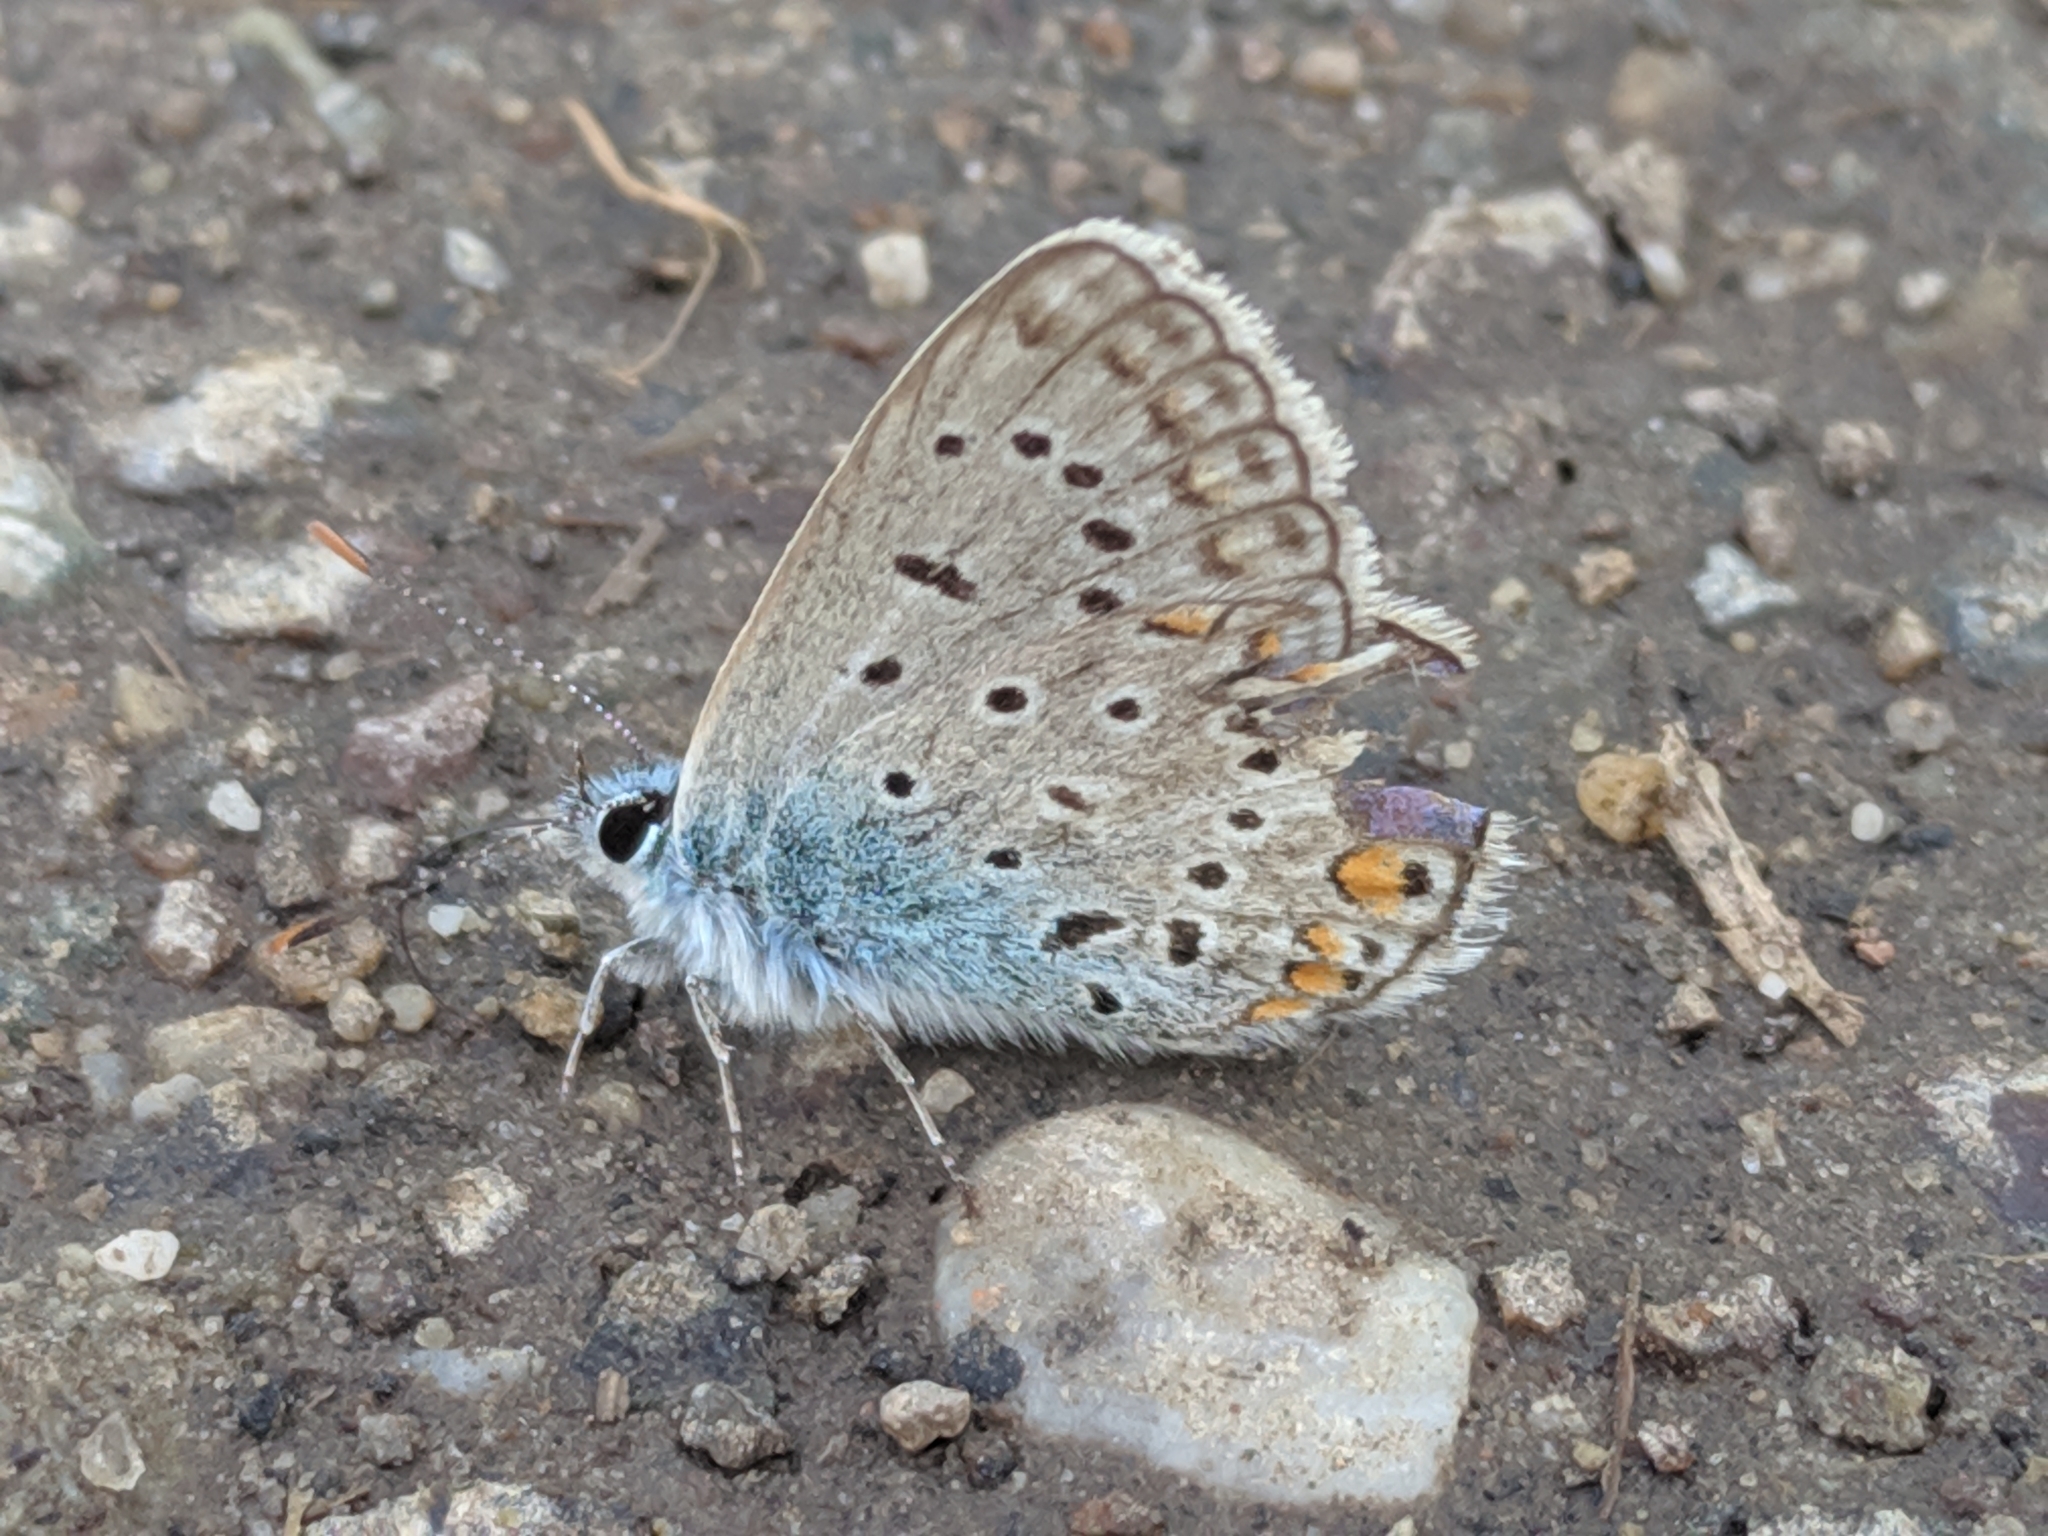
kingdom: Animalia
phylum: Arthropoda
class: Insecta
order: Lepidoptera
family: Lycaenidae
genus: Polyommatus
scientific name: Polyommatus icarus
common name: Common blue
